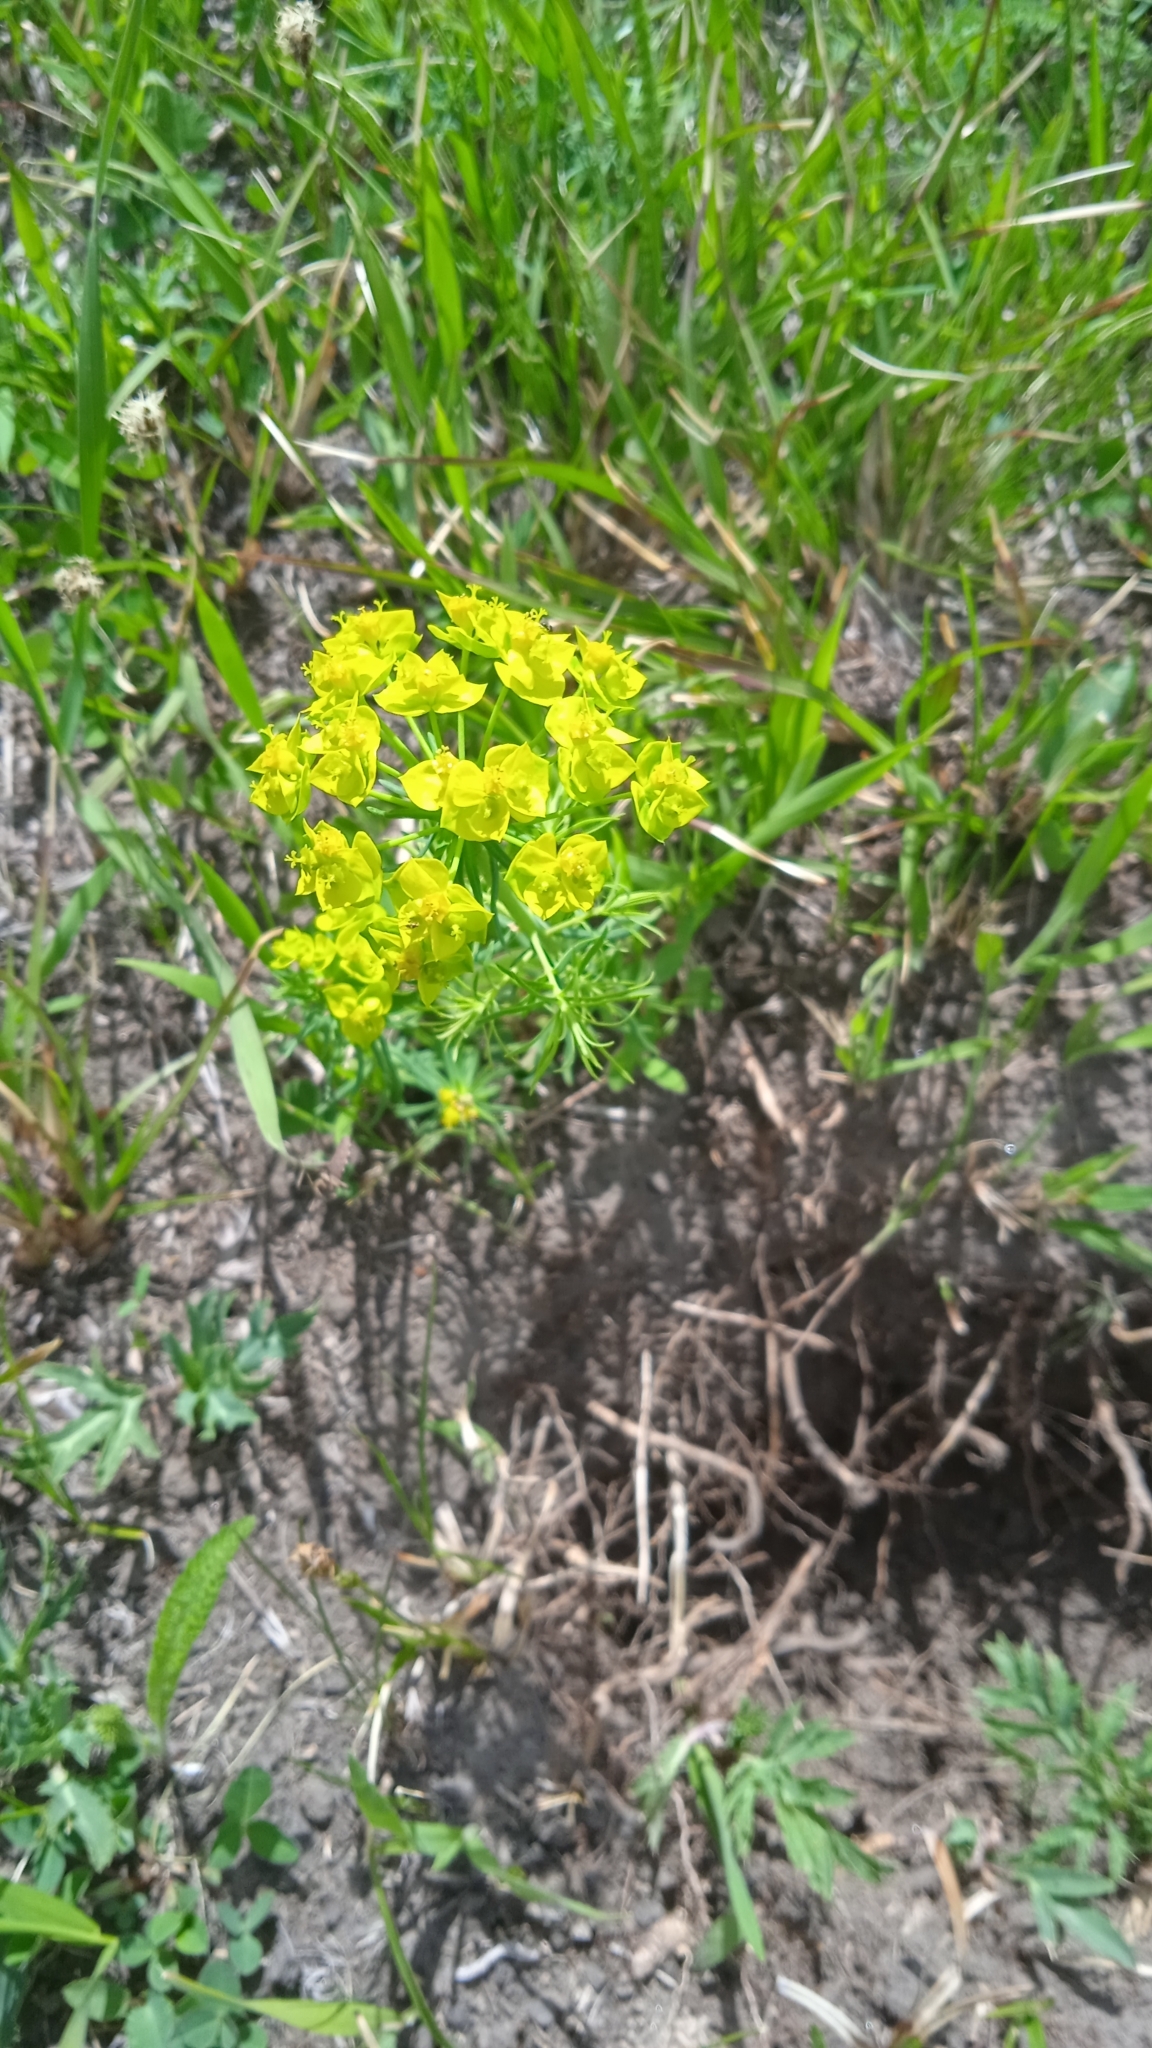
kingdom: Plantae
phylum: Tracheophyta
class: Magnoliopsida
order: Malpighiales
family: Euphorbiaceae
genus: Euphorbia
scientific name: Euphorbia cyparissias
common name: Cypress spurge
